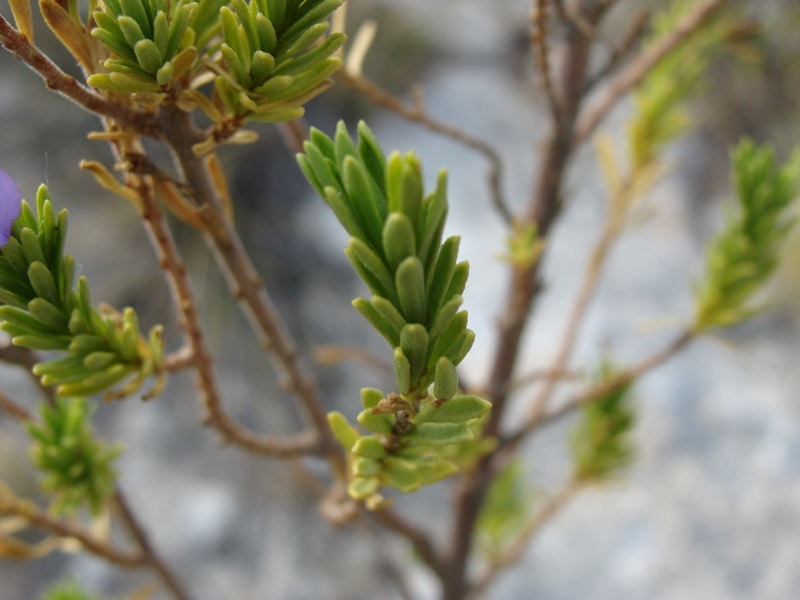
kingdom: Plantae
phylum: Tracheophyta
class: Magnoliopsida
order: Lamiales
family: Scrophulariaceae
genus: Leucophyllum
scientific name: Leucophyllum pringlei
